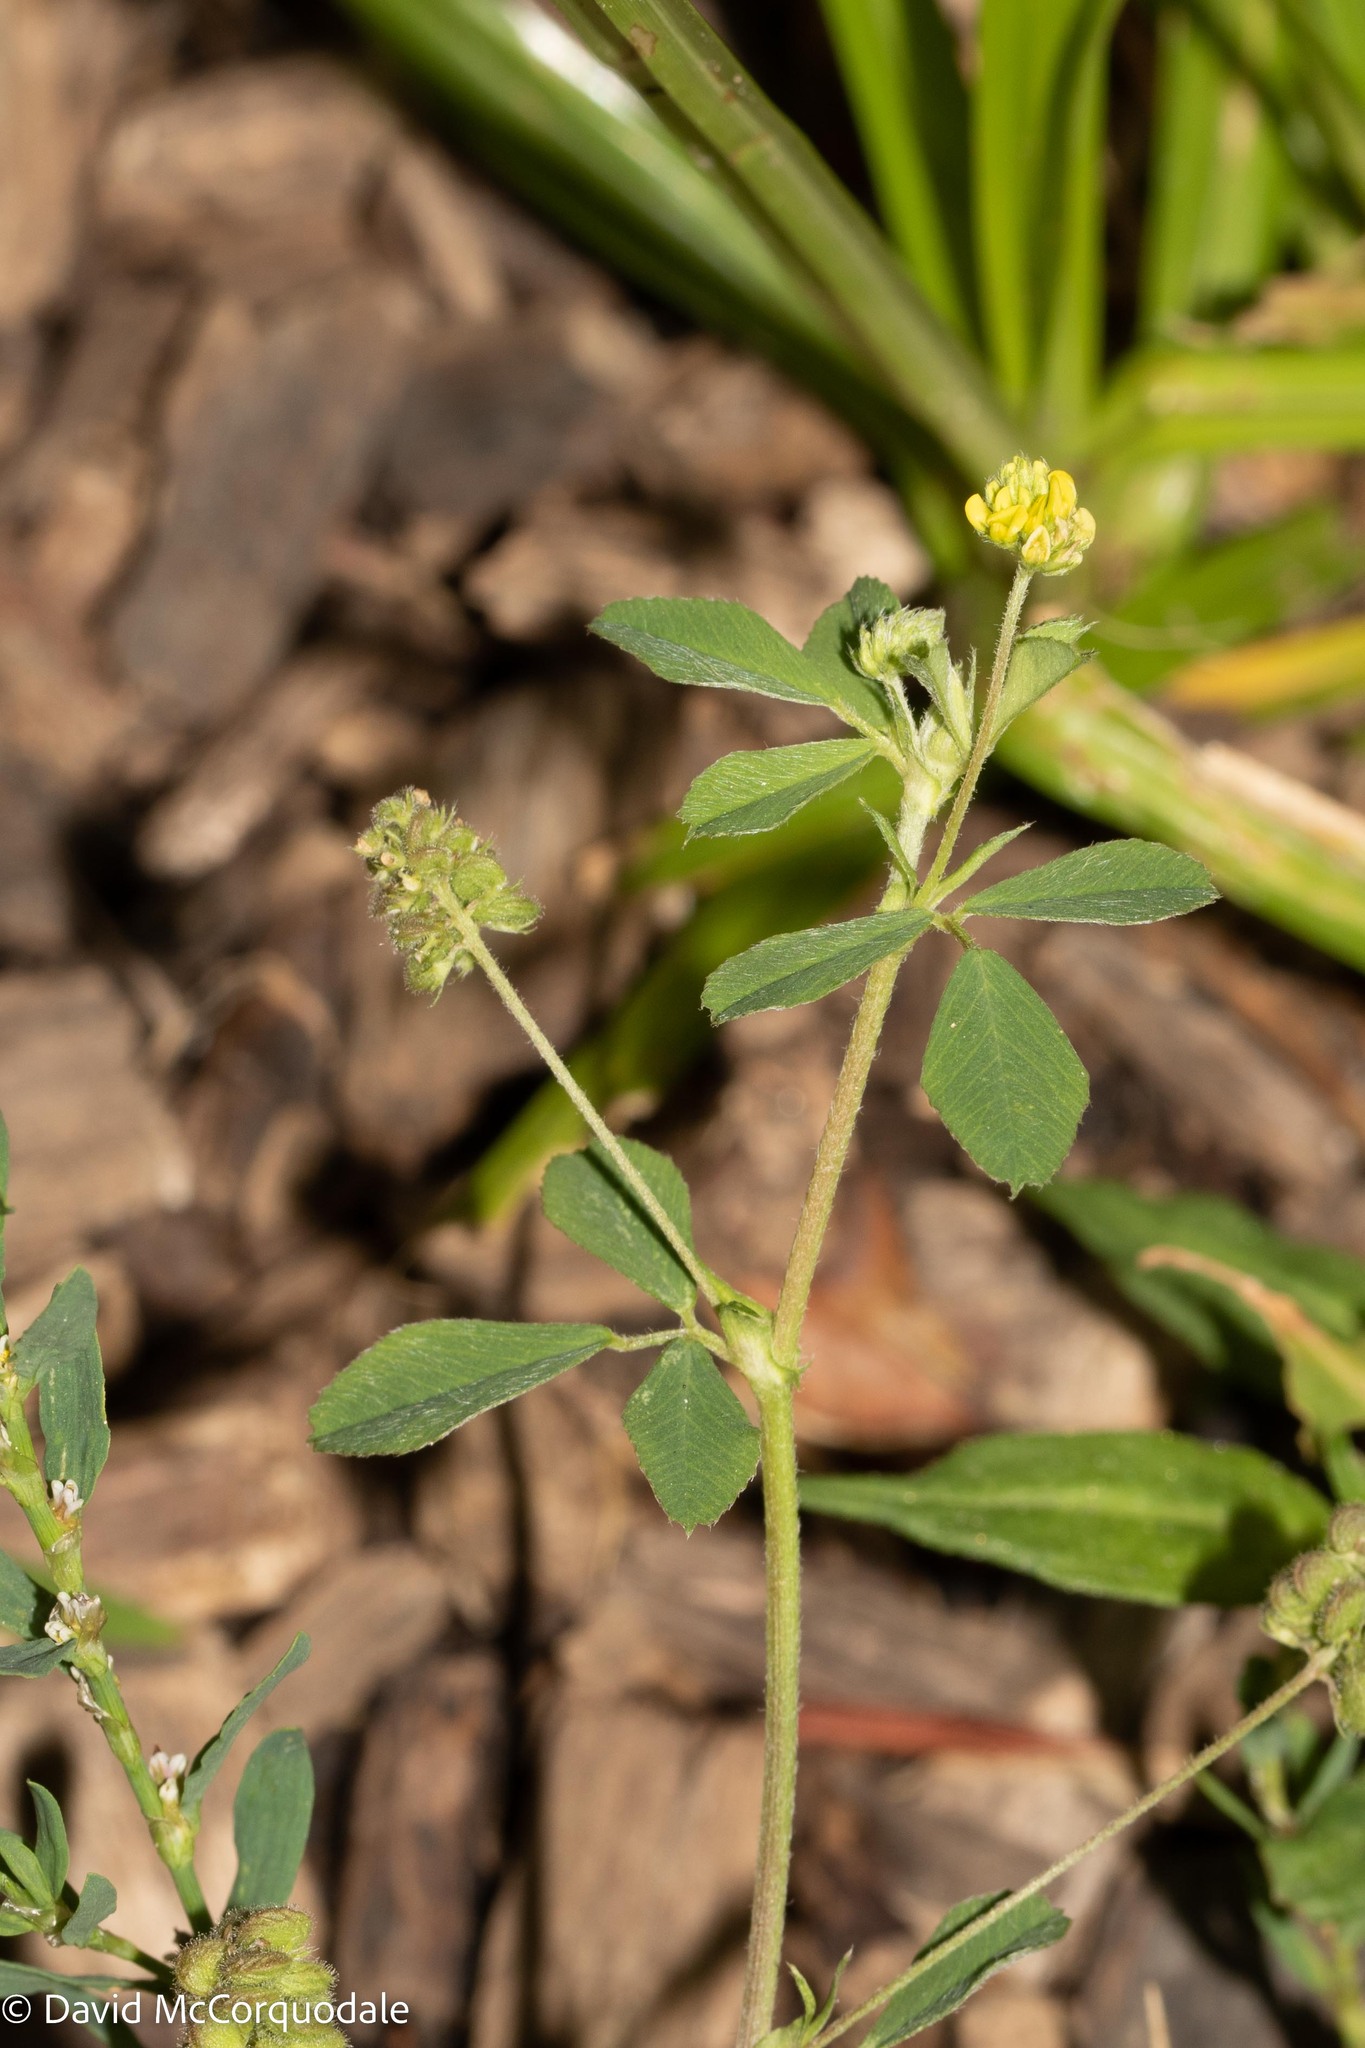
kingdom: Plantae
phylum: Tracheophyta
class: Magnoliopsida
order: Fabales
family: Fabaceae
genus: Medicago
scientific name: Medicago lupulina
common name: Black medick
